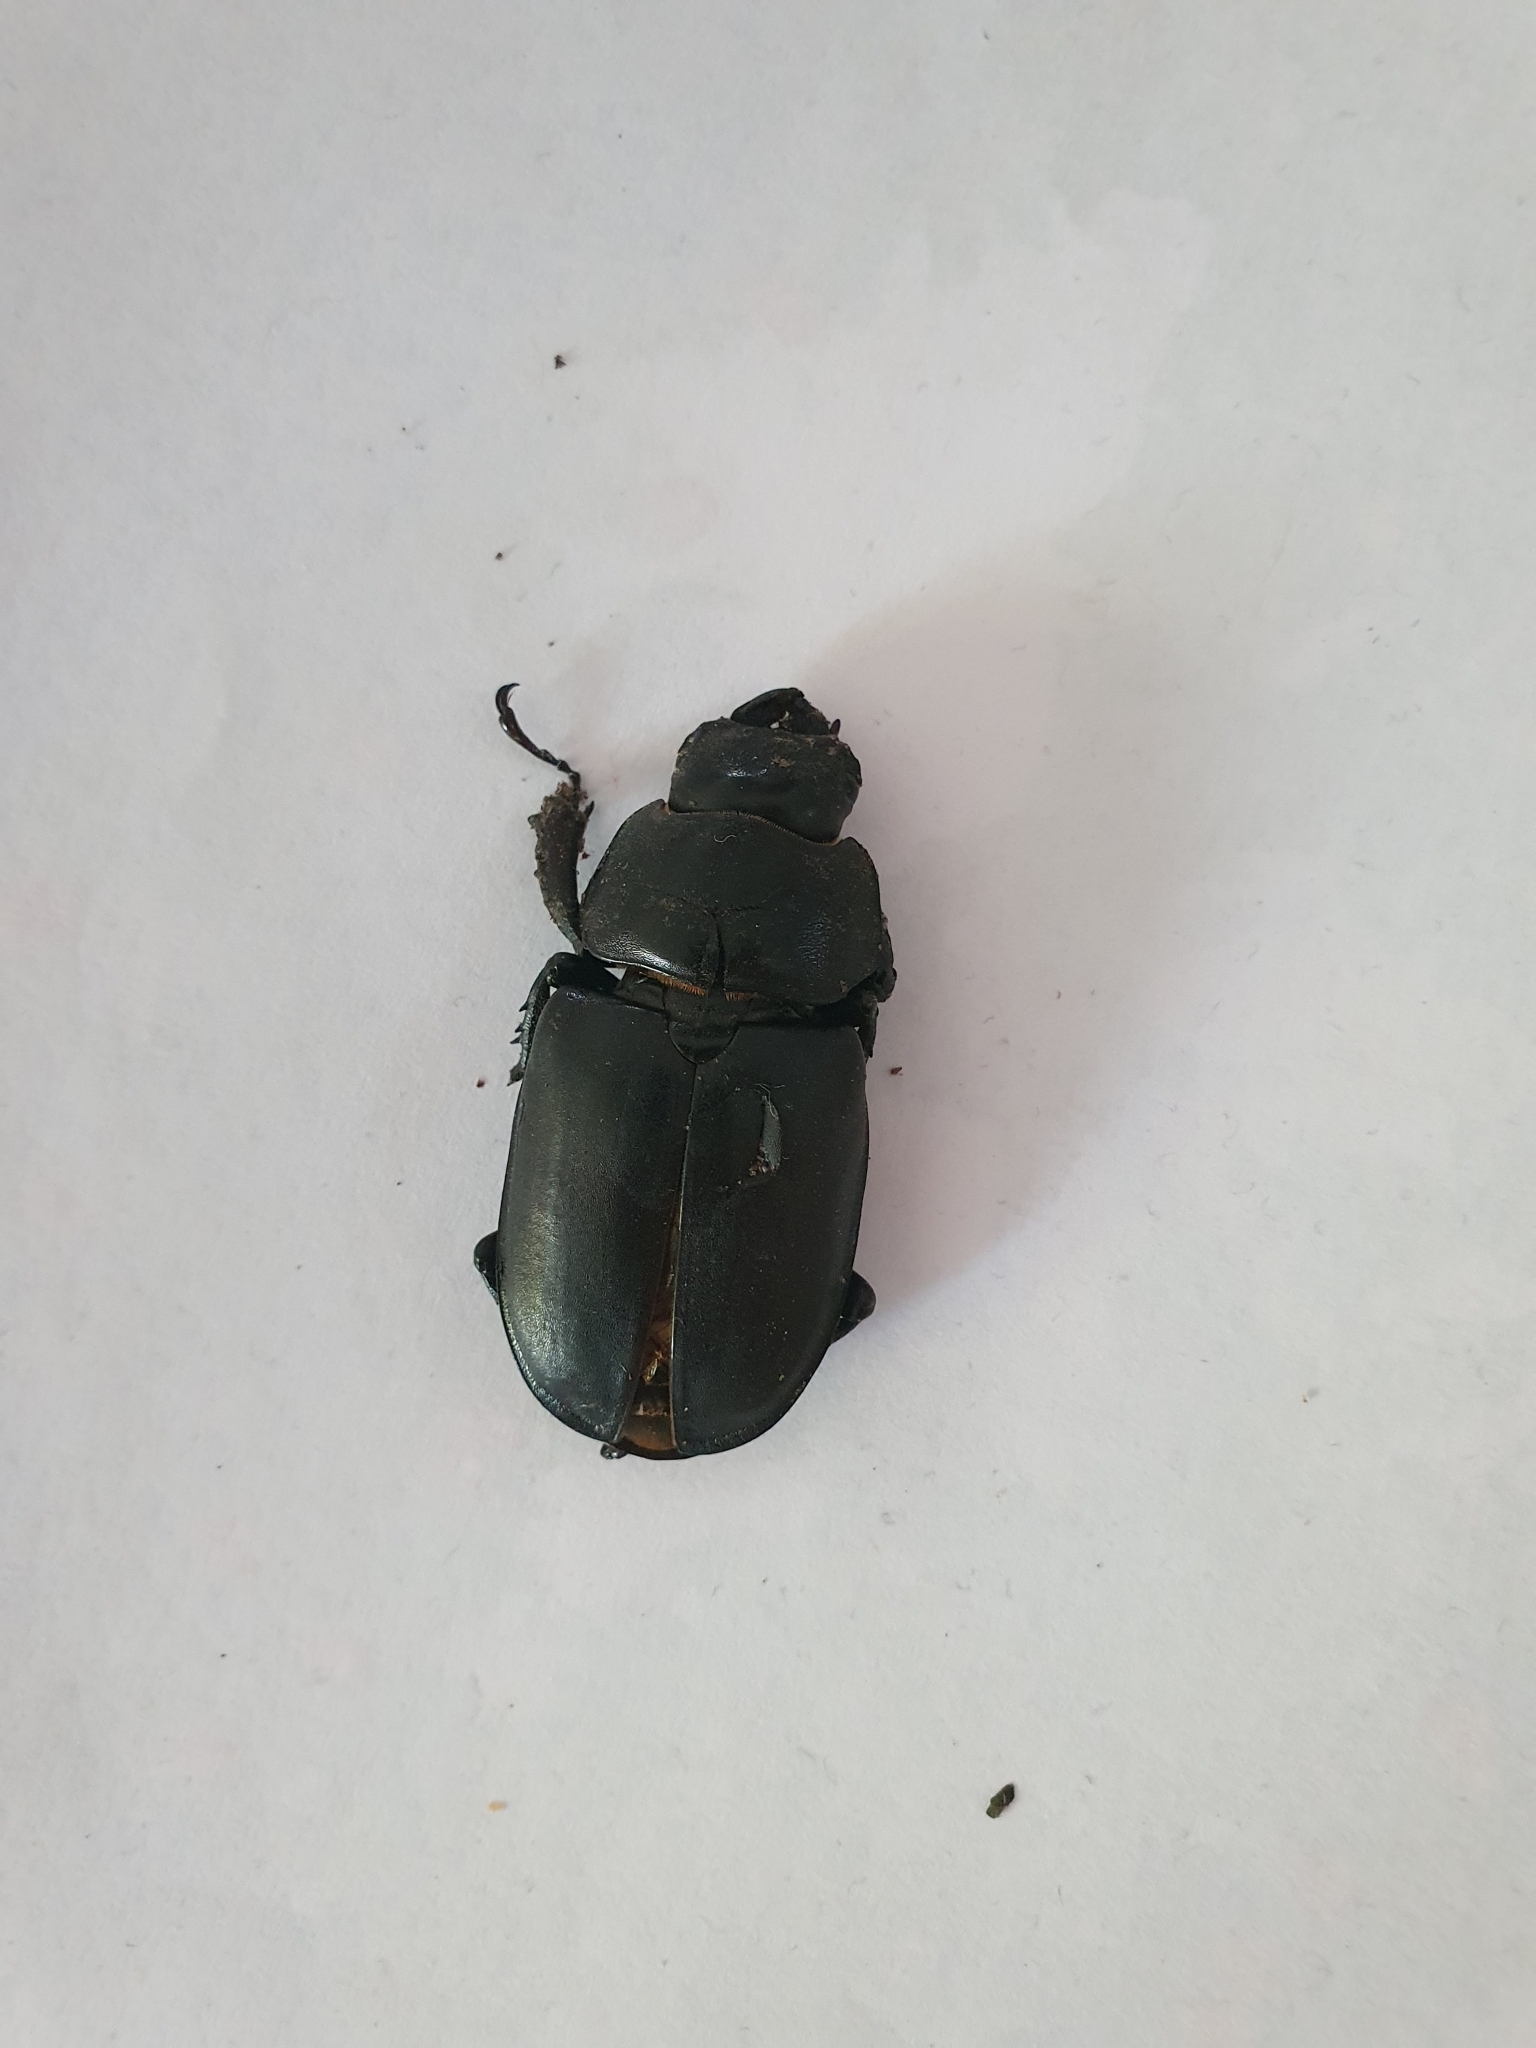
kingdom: Animalia
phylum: Arthropoda
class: Insecta
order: Coleoptera
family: Lucanidae
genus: Lucanus
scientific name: Lucanus cervus
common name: Stag beetle
